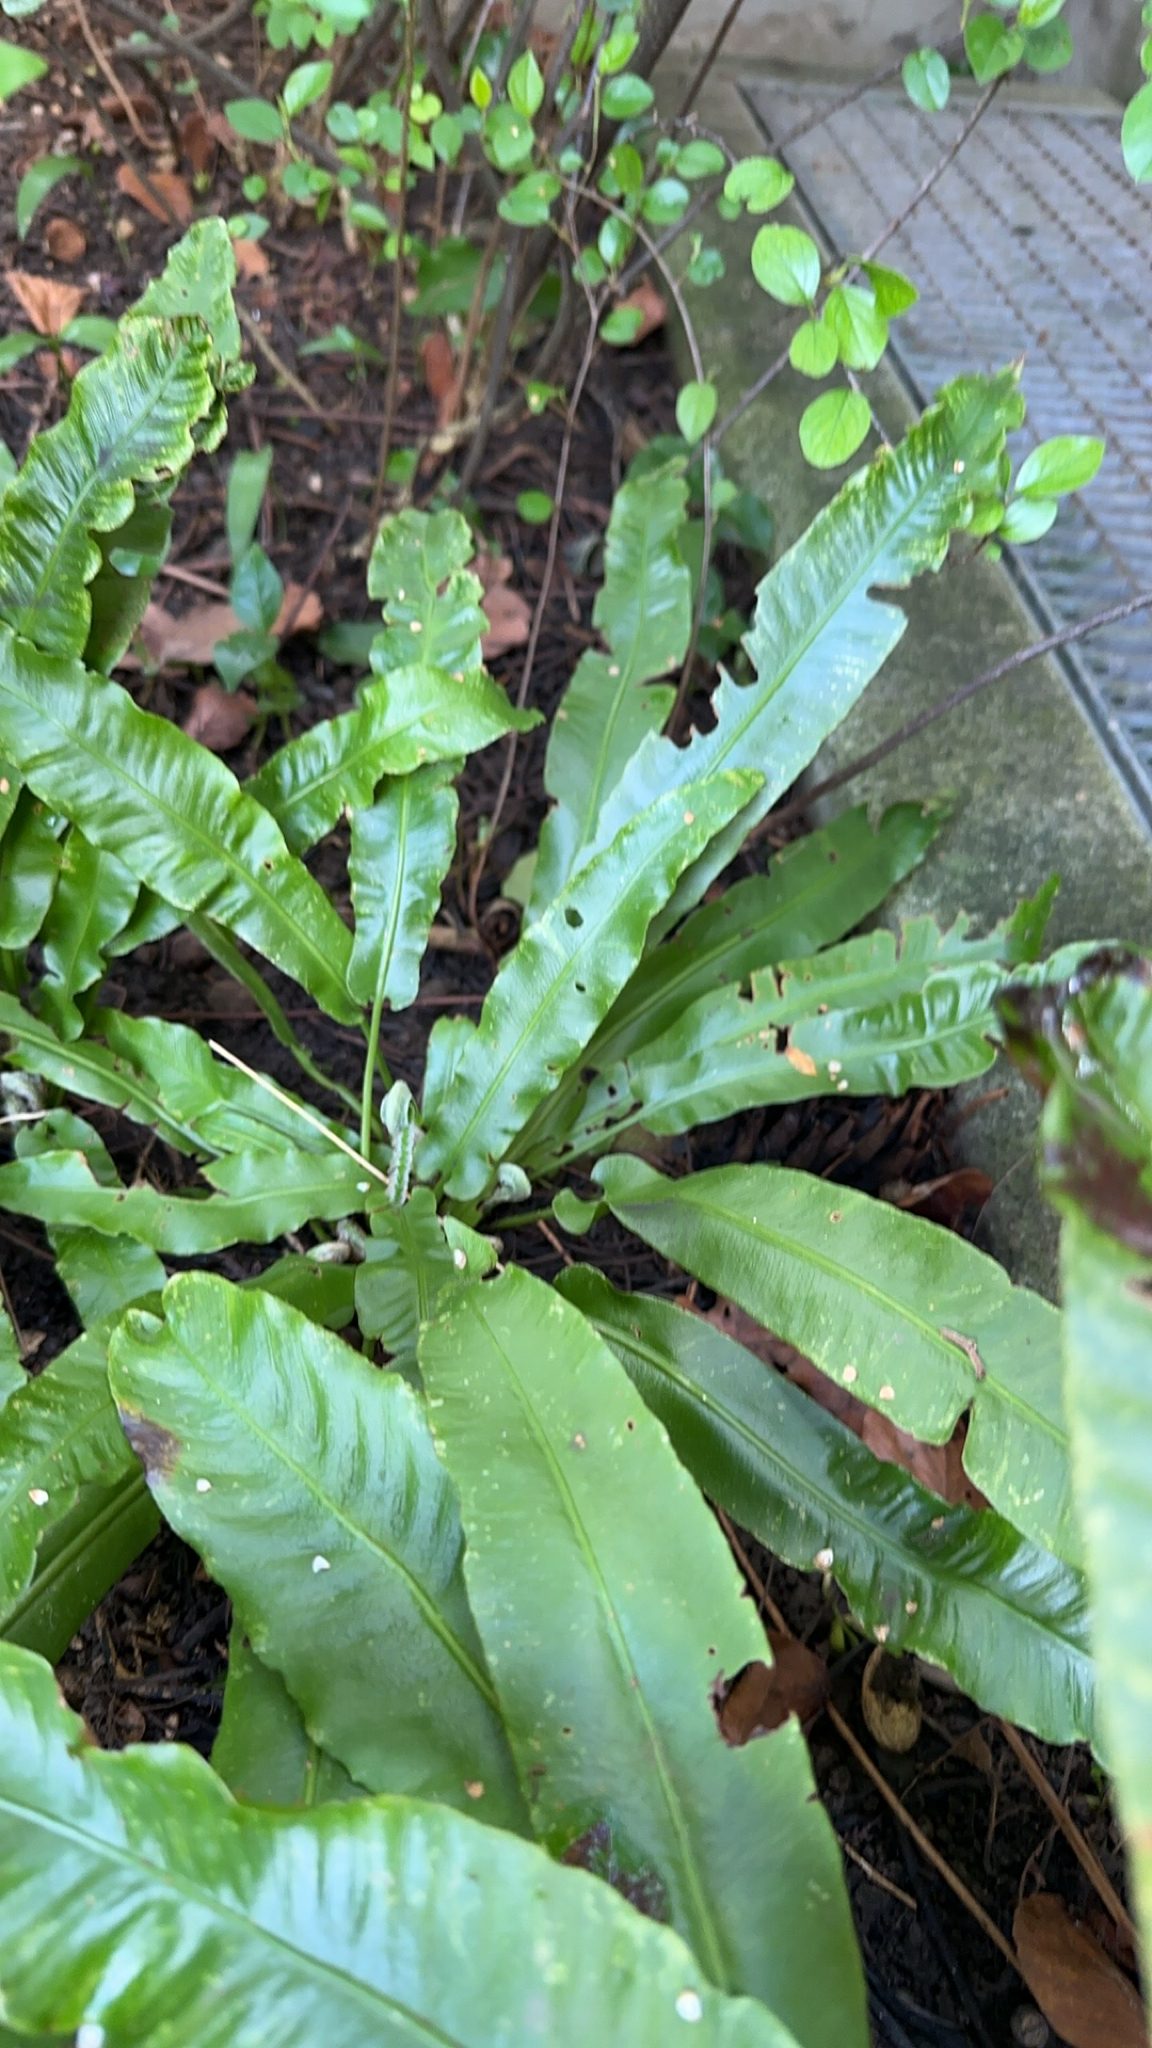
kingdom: Plantae
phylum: Tracheophyta
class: Polypodiopsida
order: Polypodiales
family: Aspleniaceae
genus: Asplenium
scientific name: Asplenium scolopendrium
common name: Hart's-tongue fern
